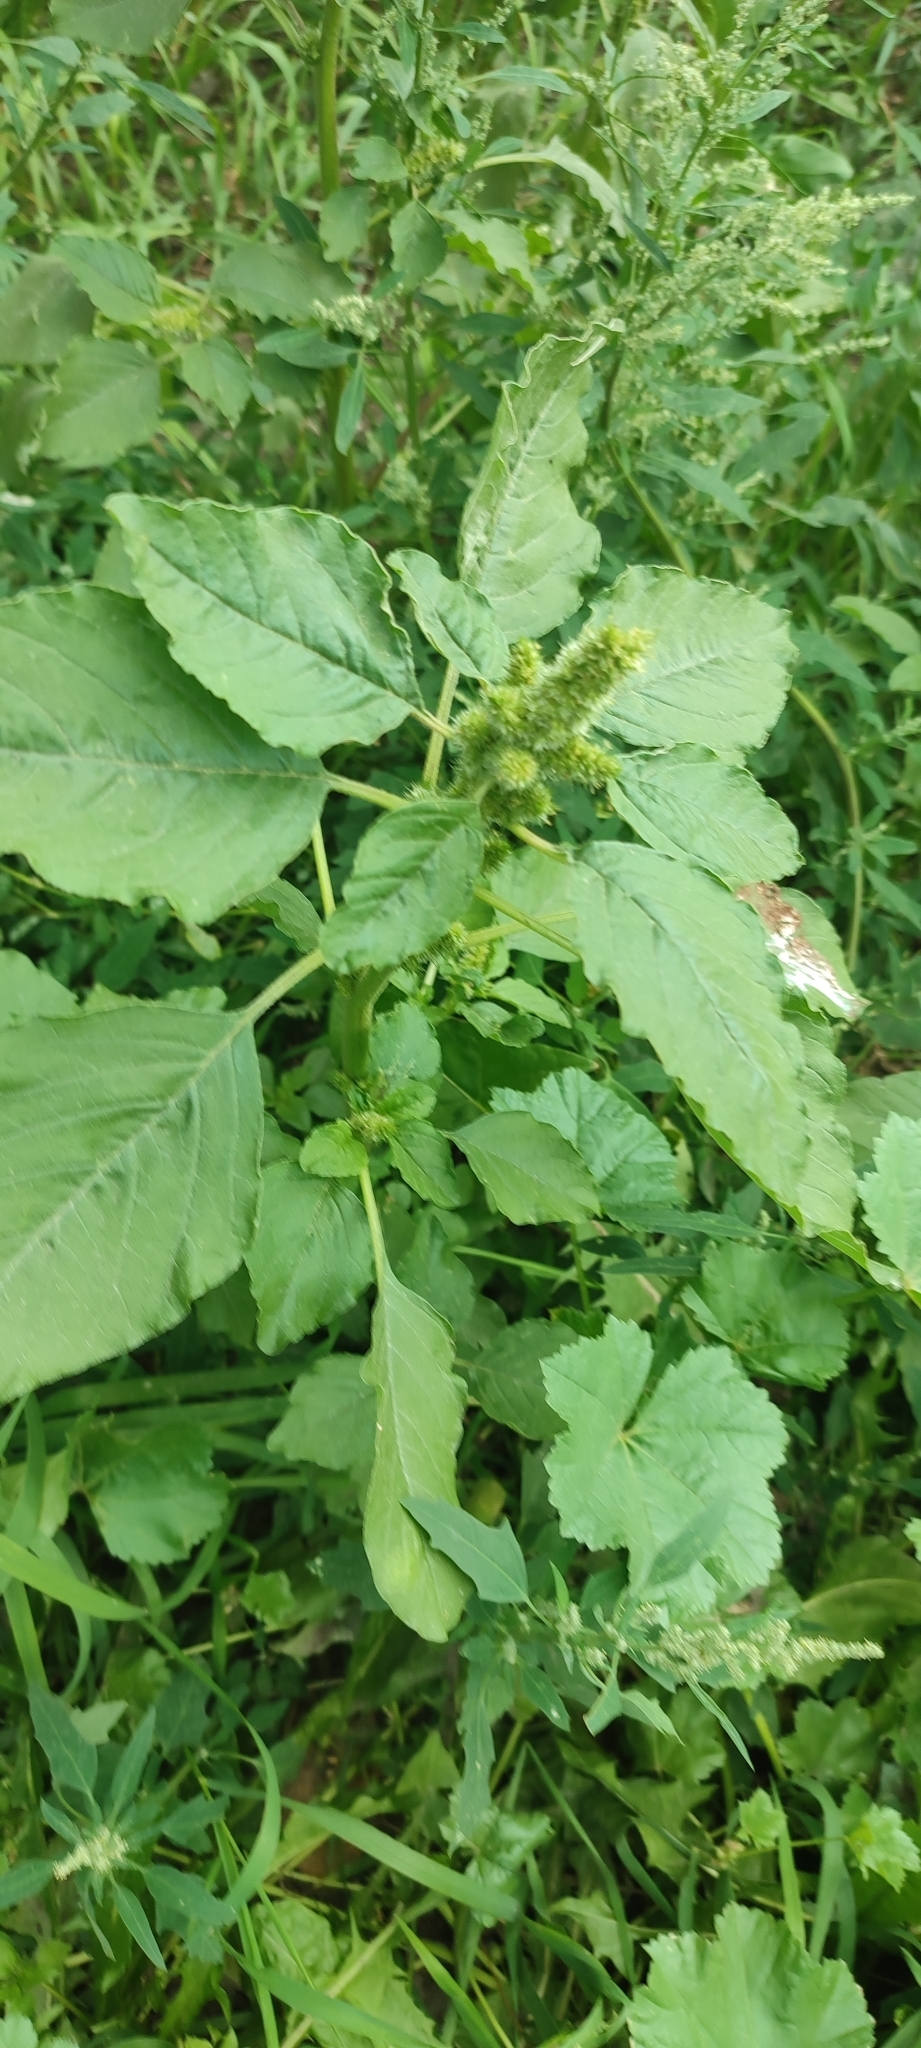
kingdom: Plantae
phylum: Tracheophyta
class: Magnoliopsida
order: Caryophyllales
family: Amaranthaceae
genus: Amaranthus
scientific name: Amaranthus retroflexus
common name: Redroot amaranth
